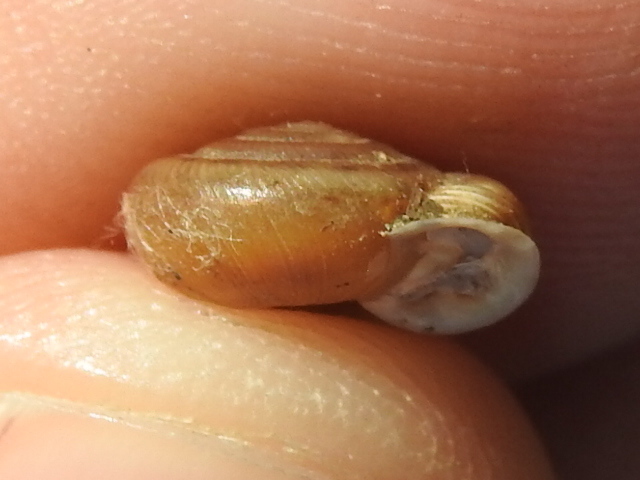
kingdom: Animalia
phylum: Mollusca
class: Gastropoda
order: Stylommatophora
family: Polygyridae
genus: Linisa
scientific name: Linisa texasiana
